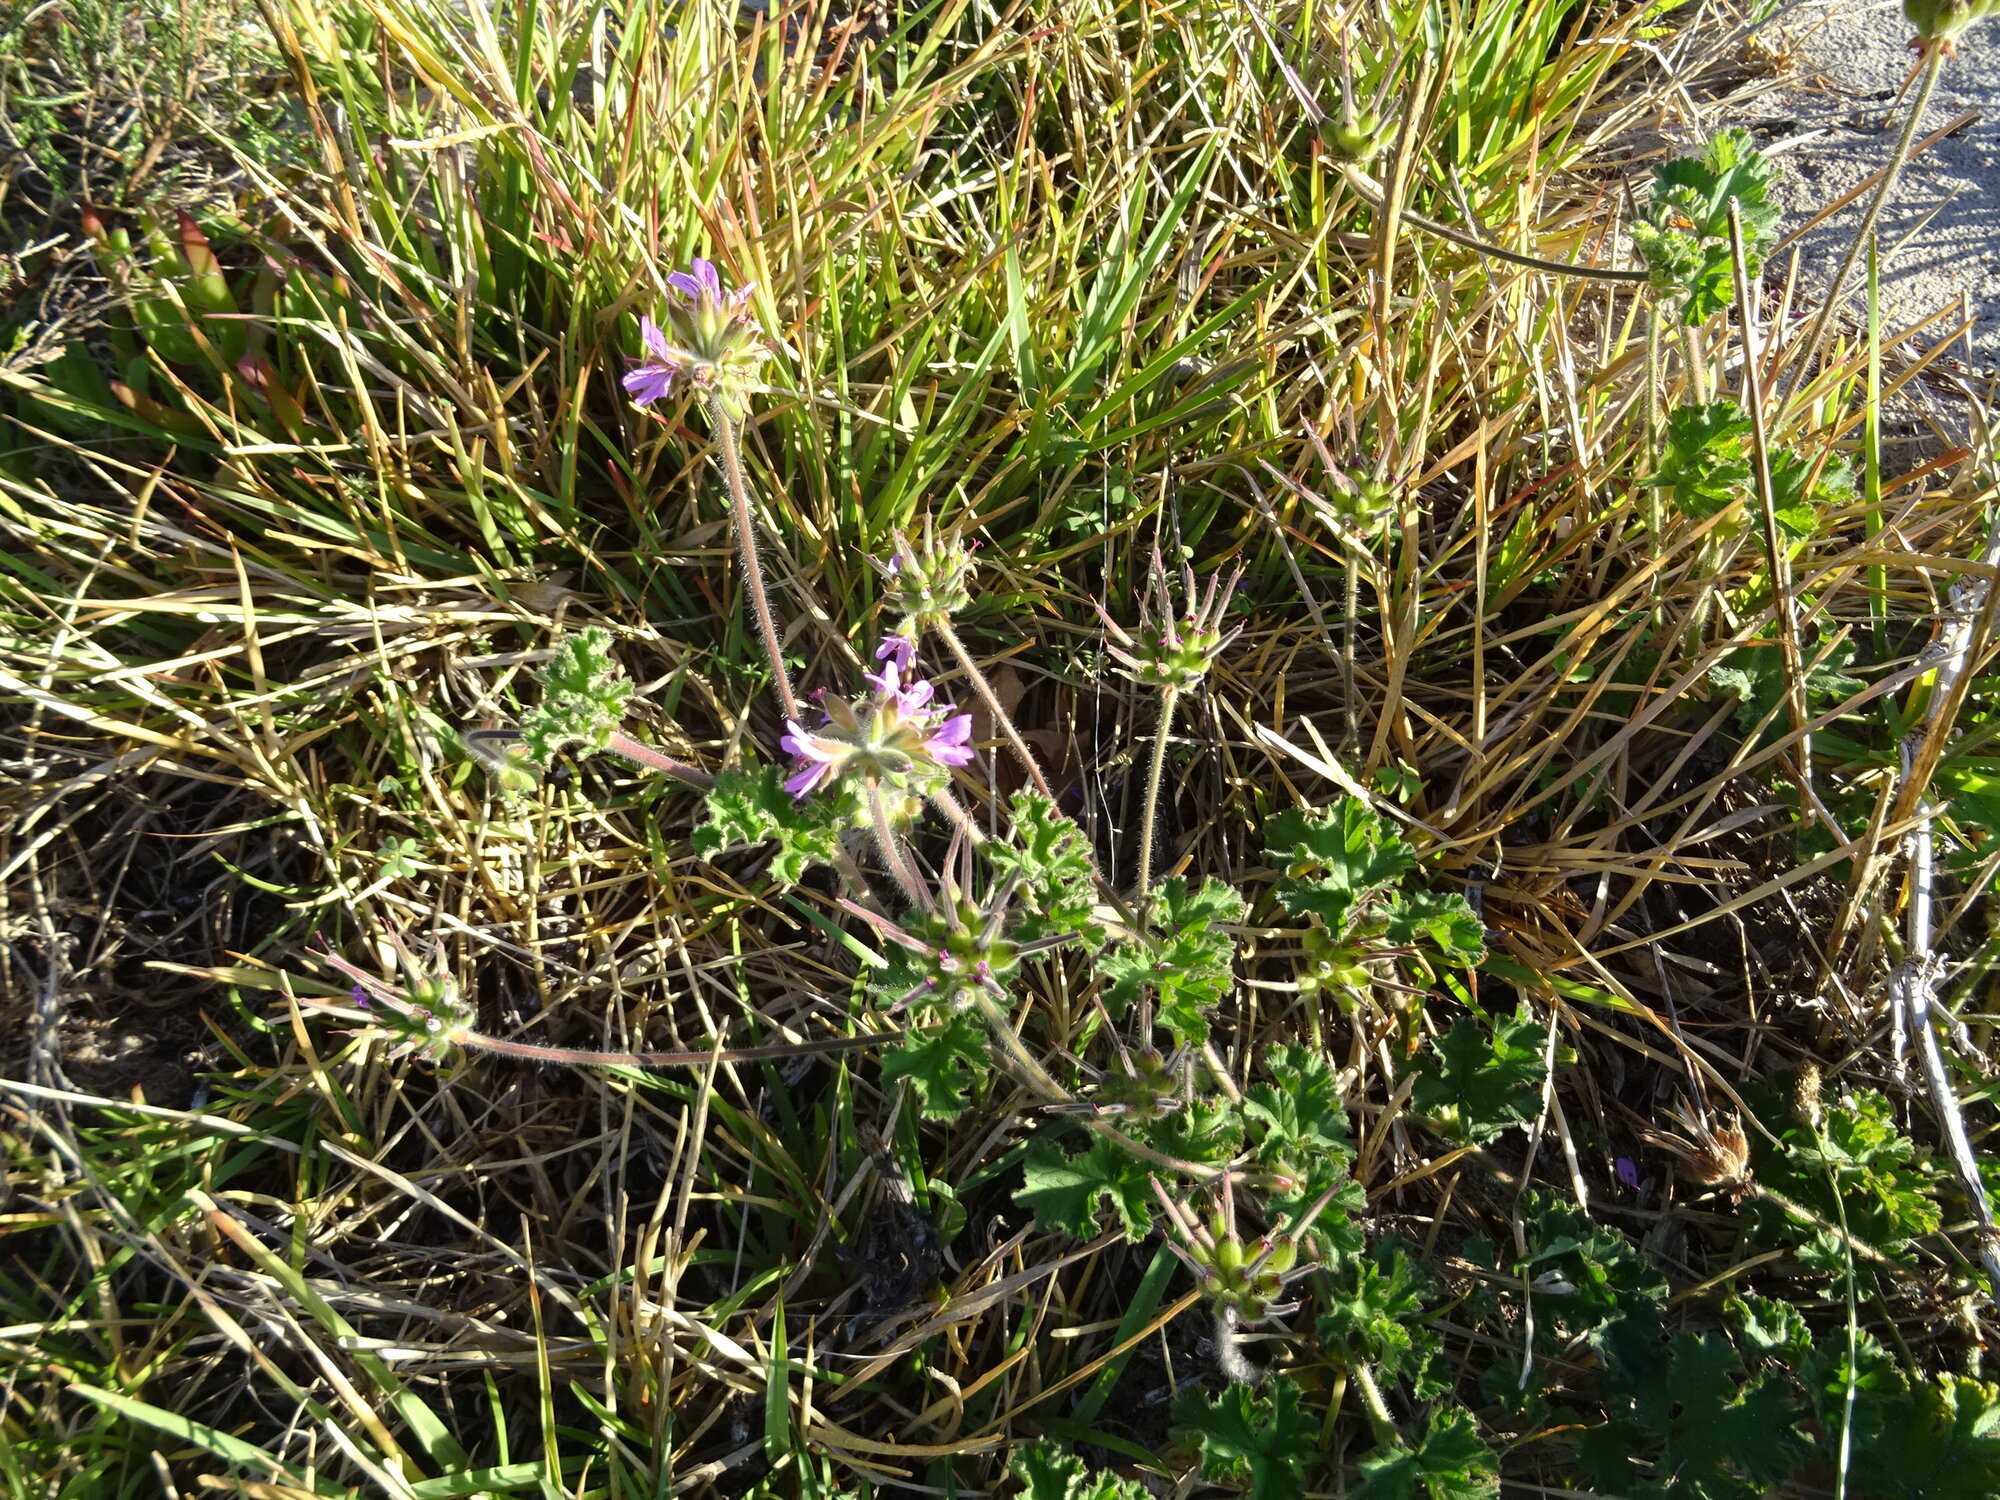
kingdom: Plantae
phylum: Tracheophyta
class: Magnoliopsida
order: Geraniales
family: Geraniaceae
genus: Pelargonium
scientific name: Pelargonium capitatum
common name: Rose scented geranium
